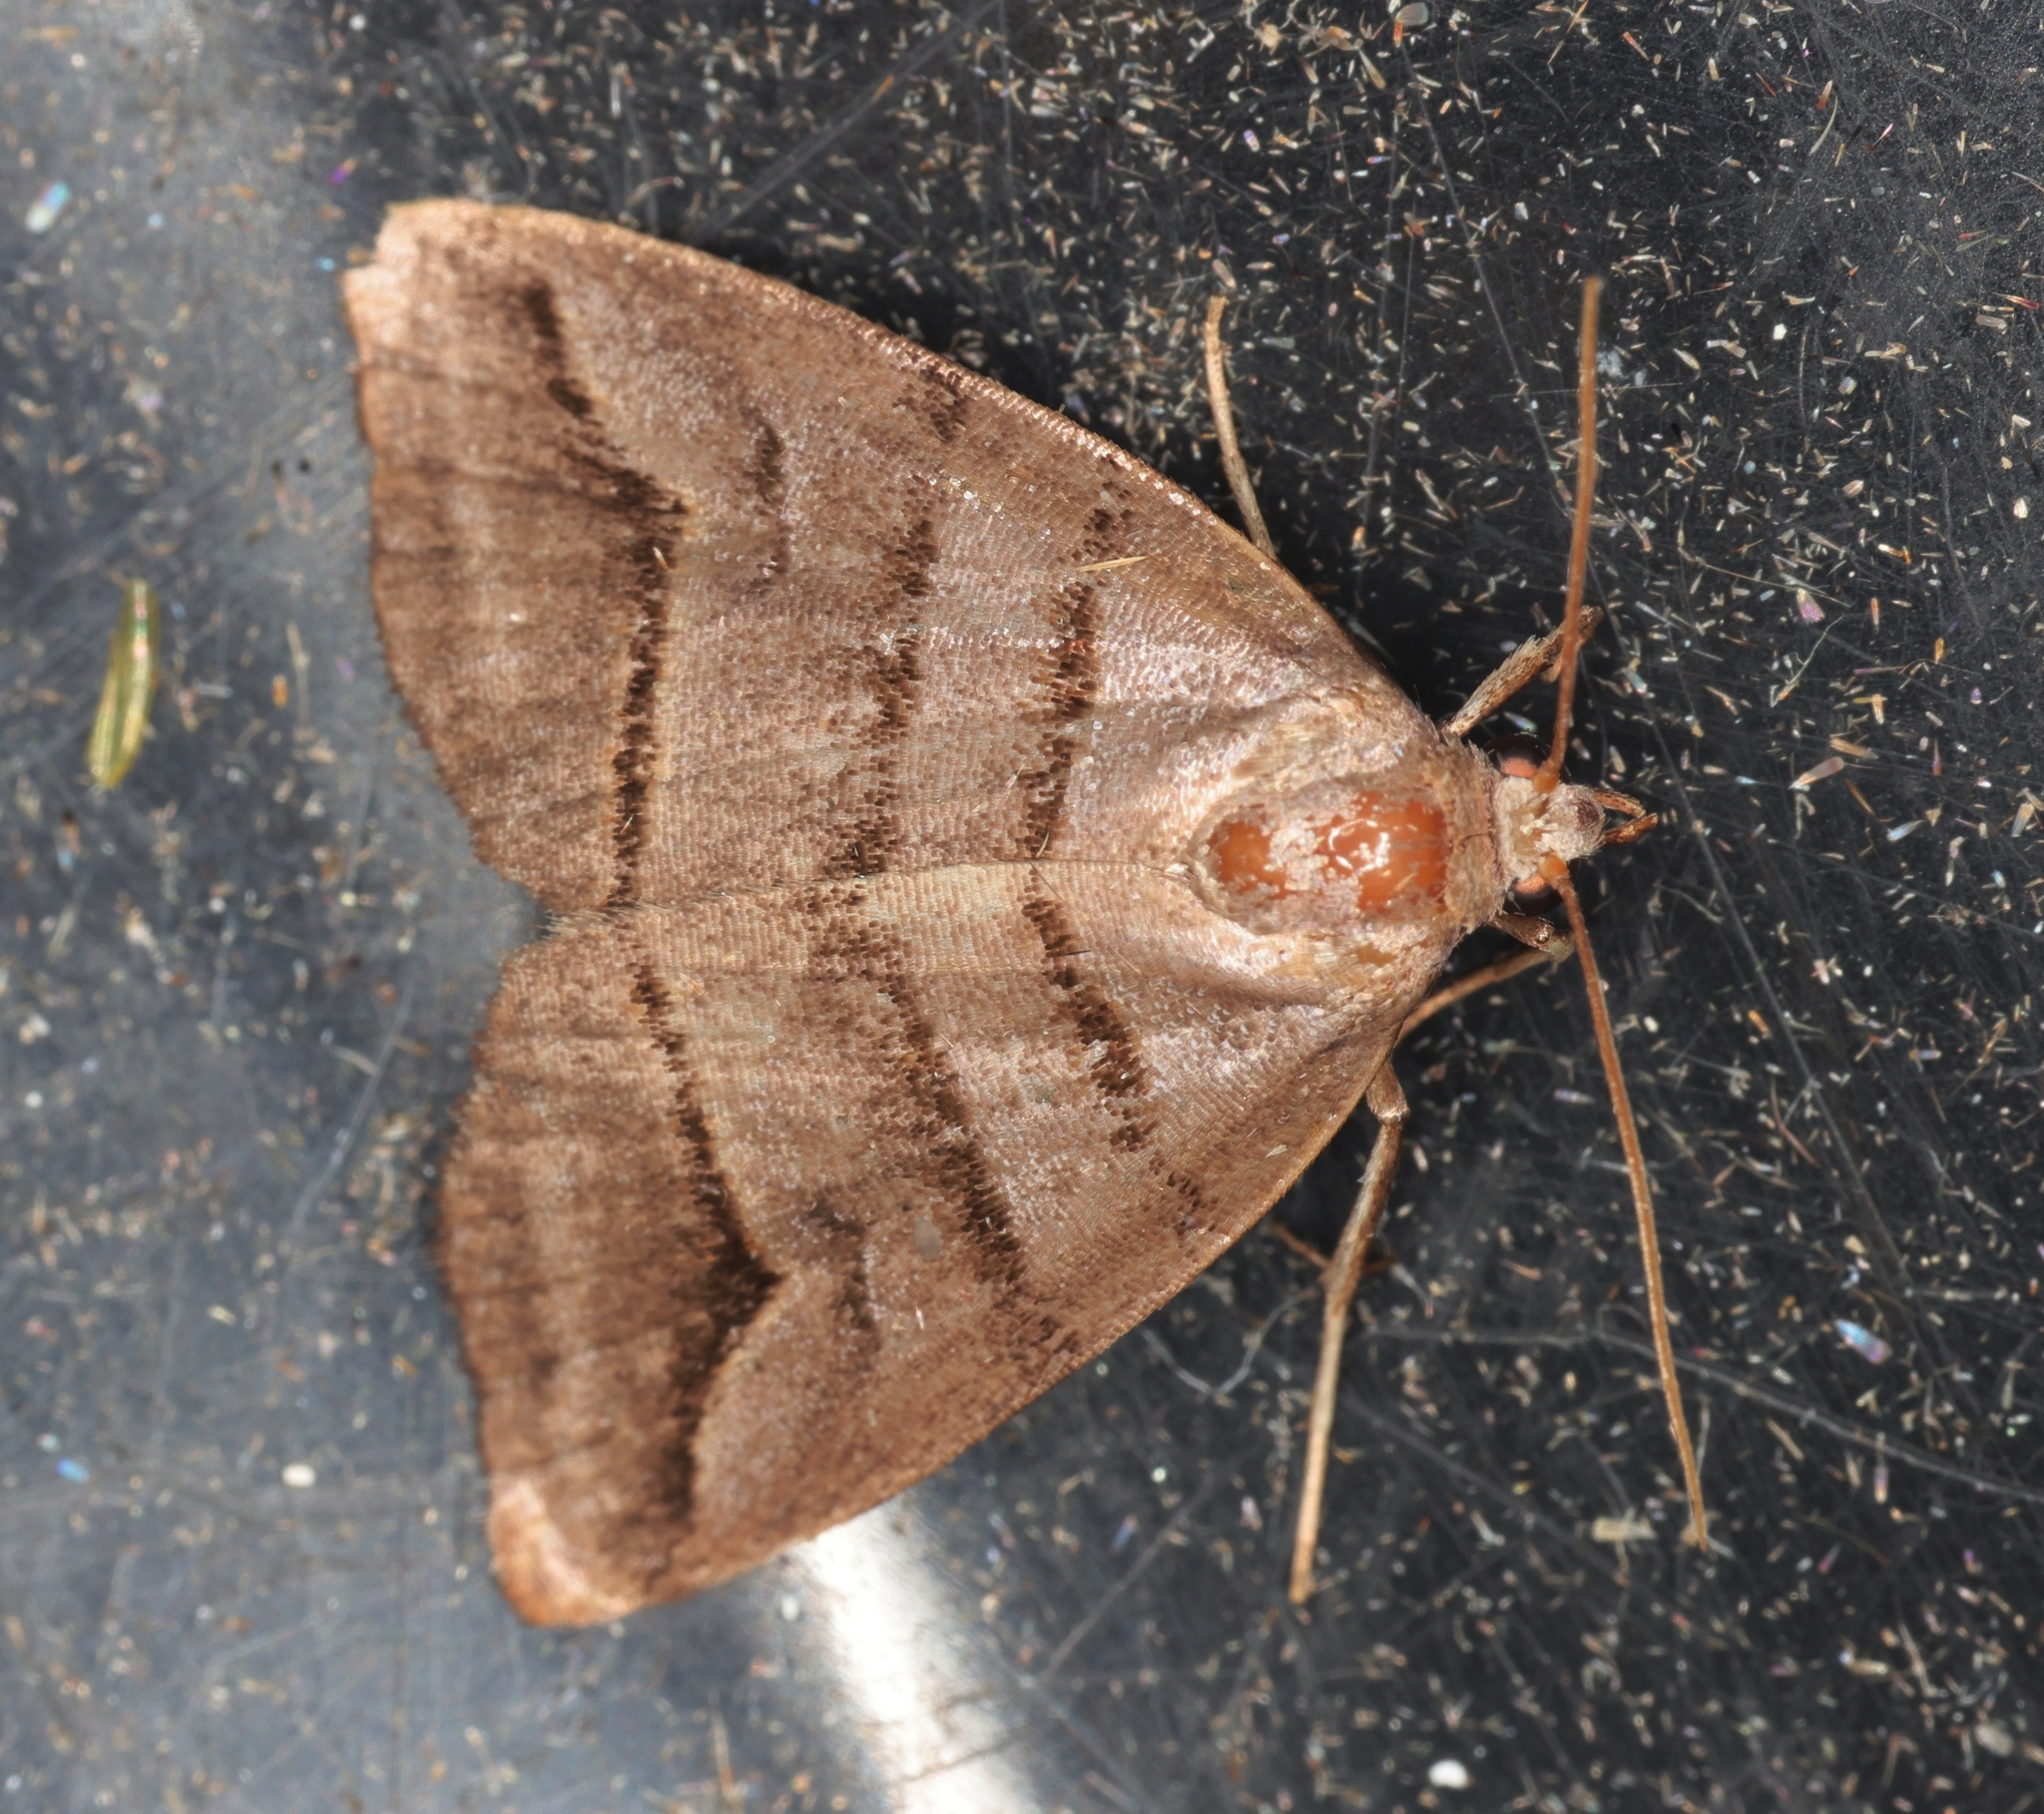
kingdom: Animalia
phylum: Arthropoda
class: Insecta
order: Lepidoptera
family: Noctuidae
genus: Flammona
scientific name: Flammona trilineata
